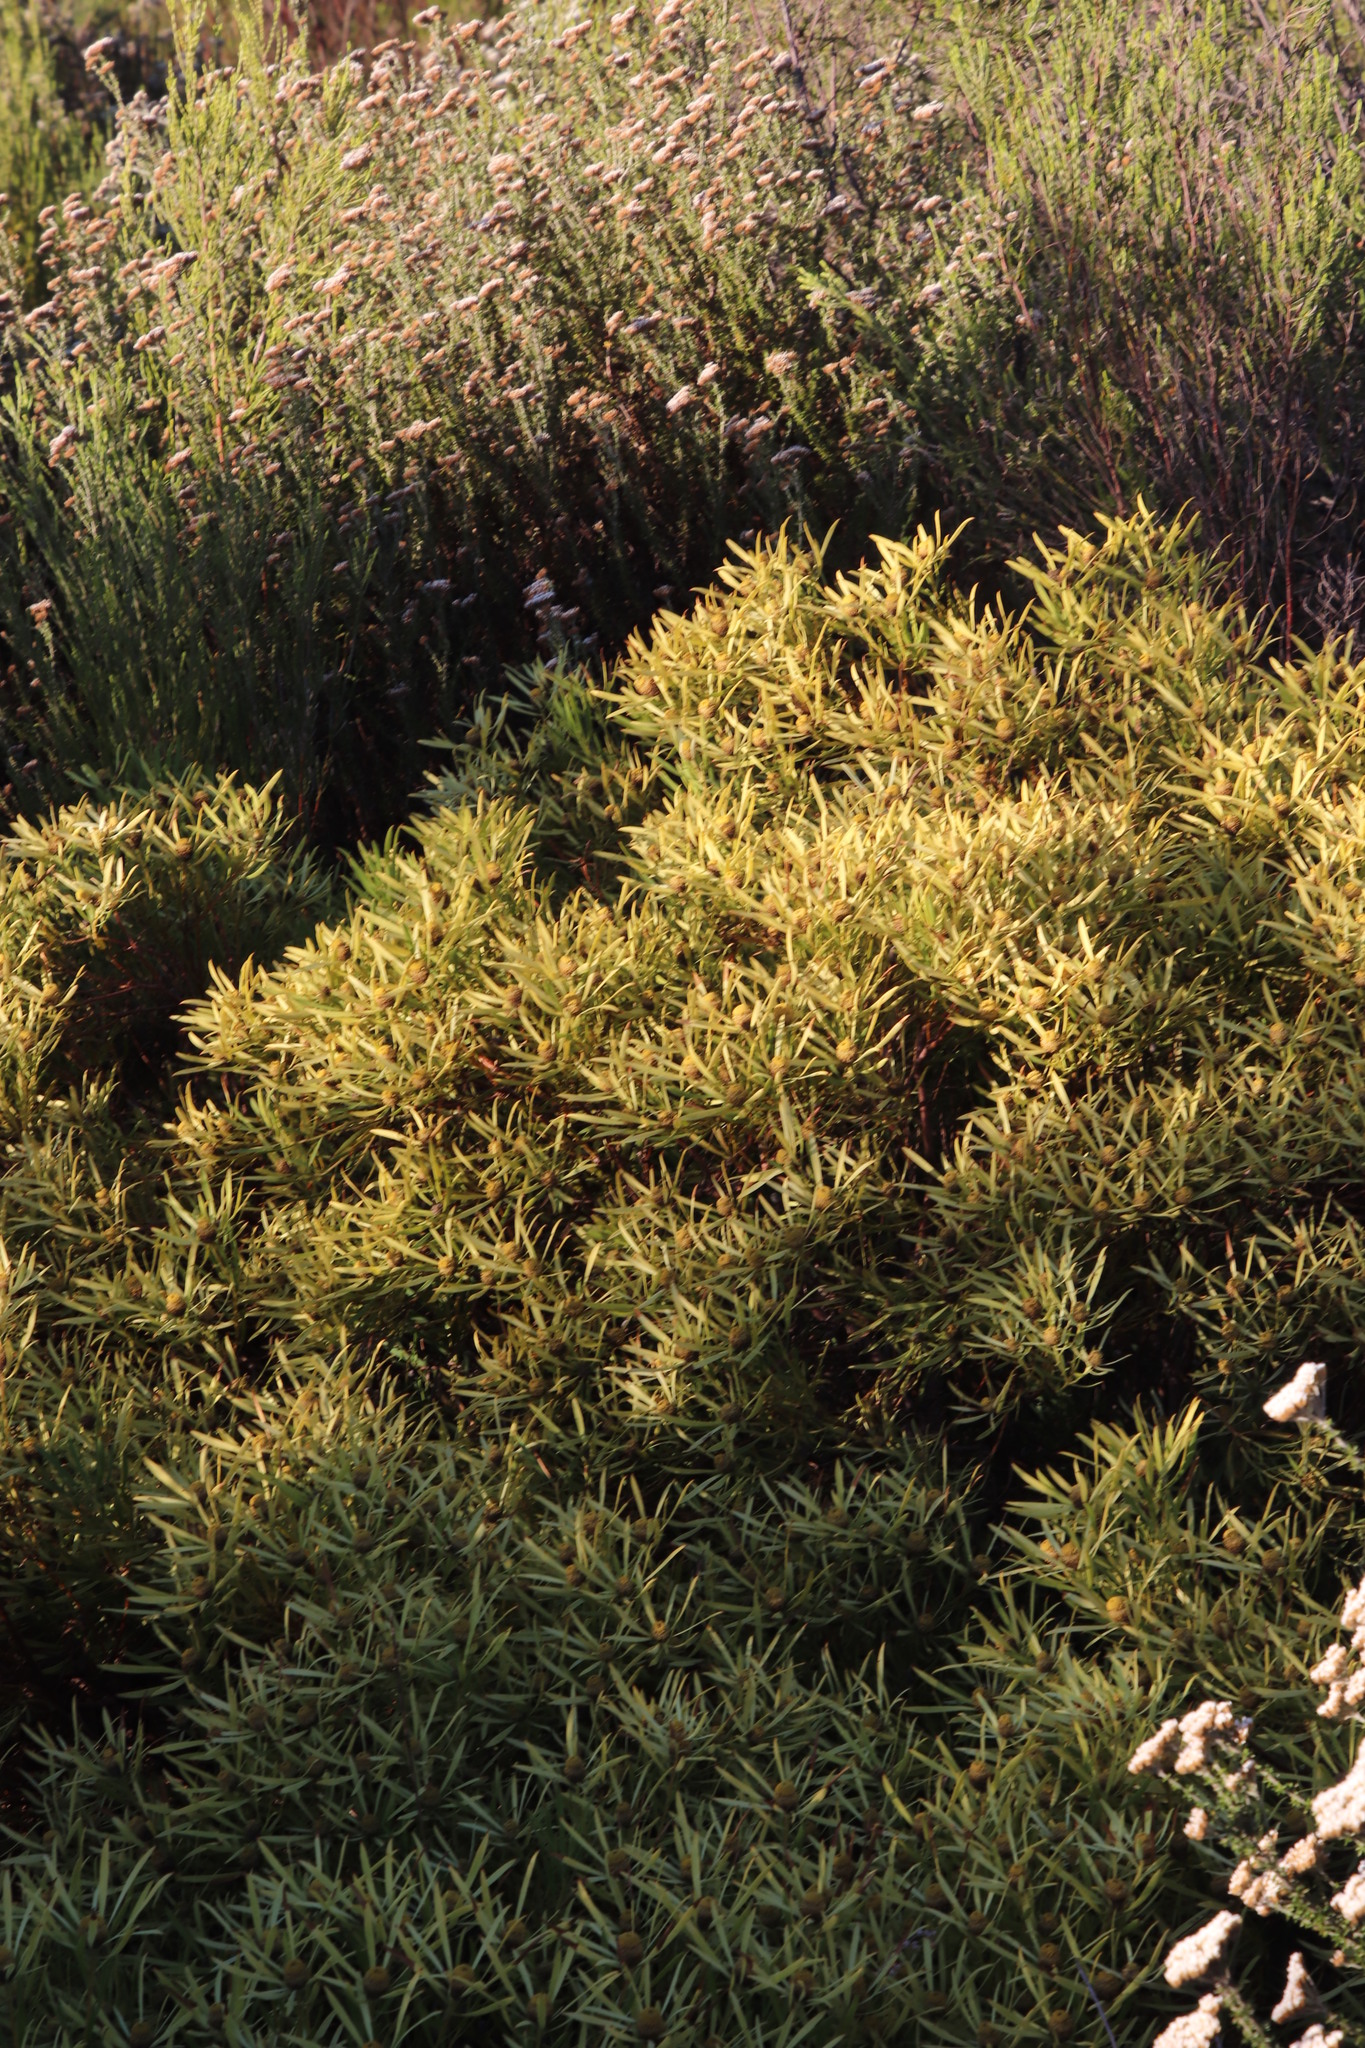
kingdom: Plantae
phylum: Tracheophyta
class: Magnoliopsida
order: Proteales
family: Proteaceae
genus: Leucadendron
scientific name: Leucadendron salignum
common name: Common sunshine conebush
